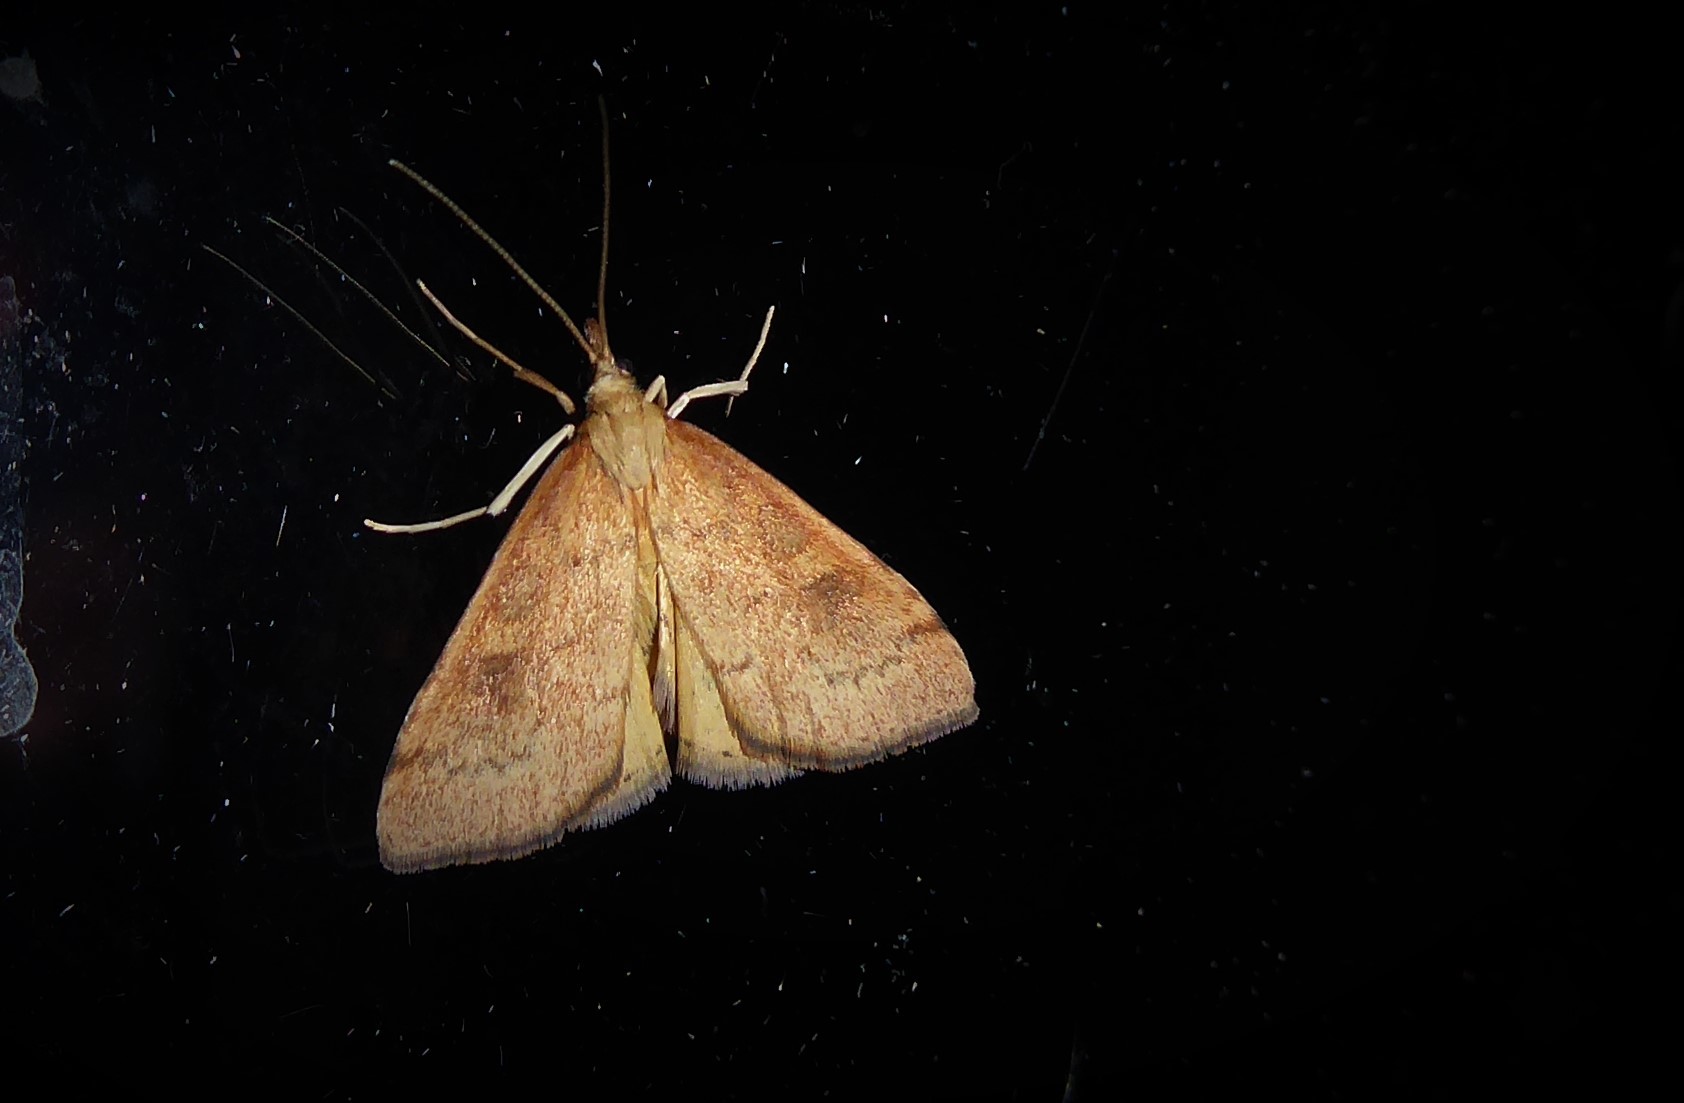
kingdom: Animalia
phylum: Arthropoda
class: Insecta
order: Lepidoptera
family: Crambidae
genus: Udea
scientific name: Udea Mnesictena flavidalis
